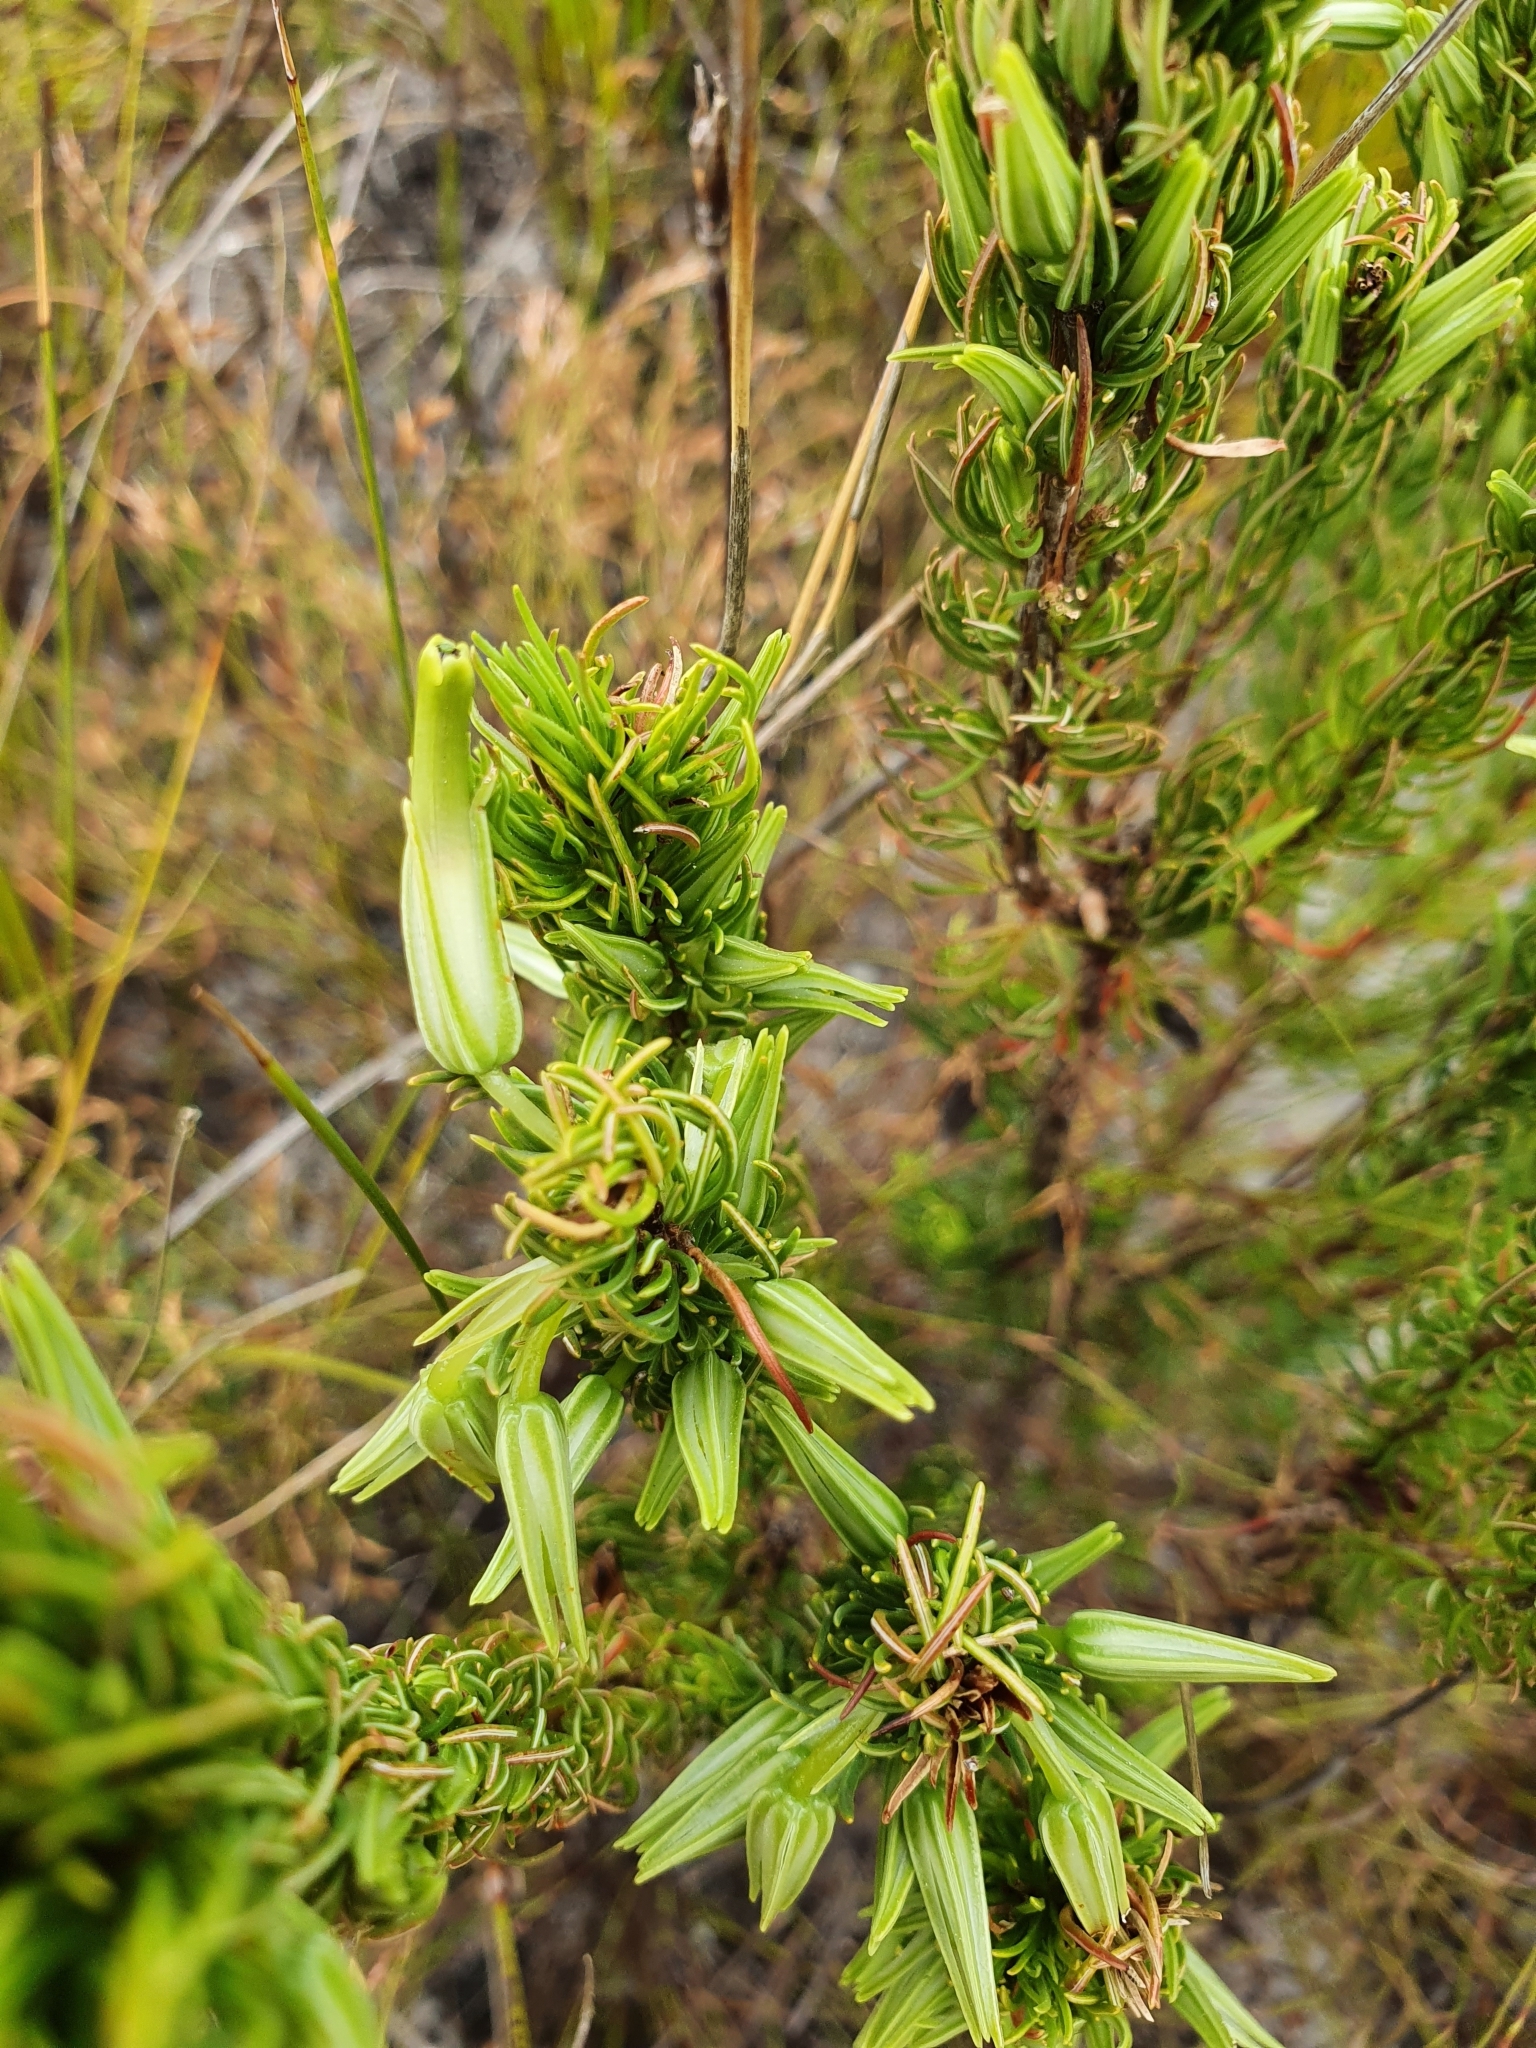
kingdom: Plantae
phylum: Tracheophyta
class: Magnoliopsida
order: Ericales
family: Ericaceae
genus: Erica
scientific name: Erica plukenetii
